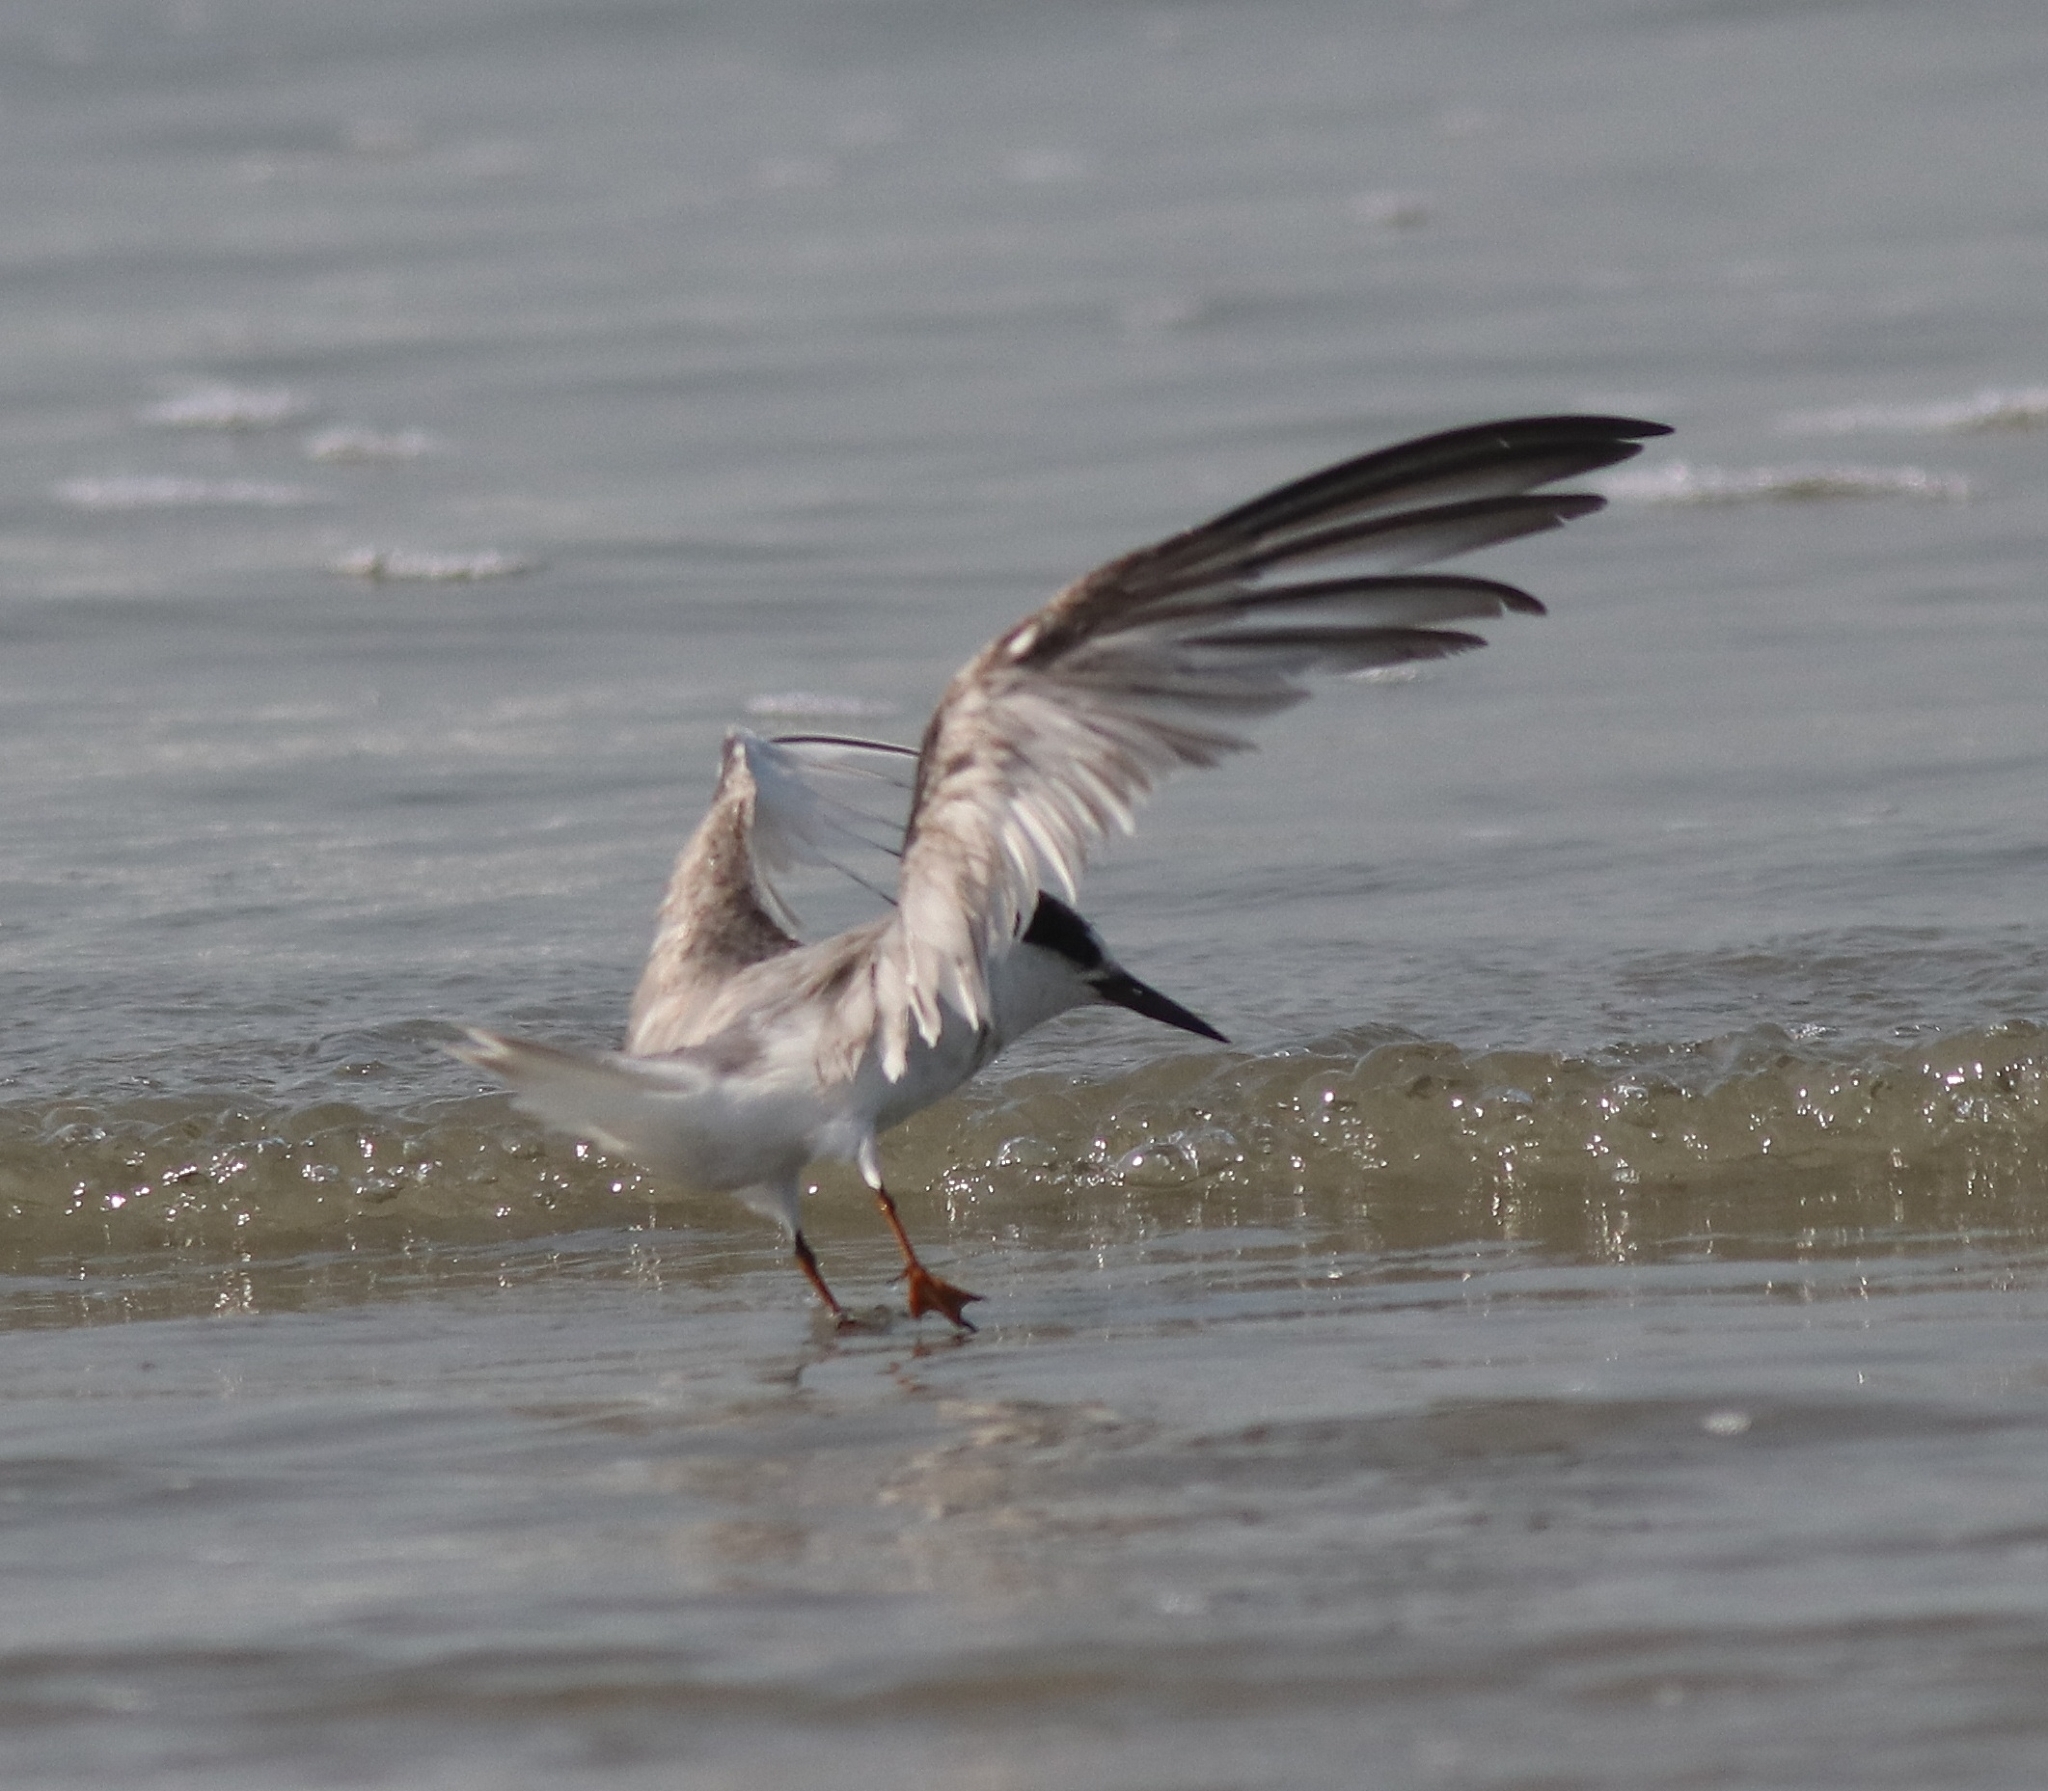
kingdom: Animalia
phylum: Chordata
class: Aves
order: Charadriiformes
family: Laridae
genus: Sternula
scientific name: Sternula albifrons
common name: Little tern
